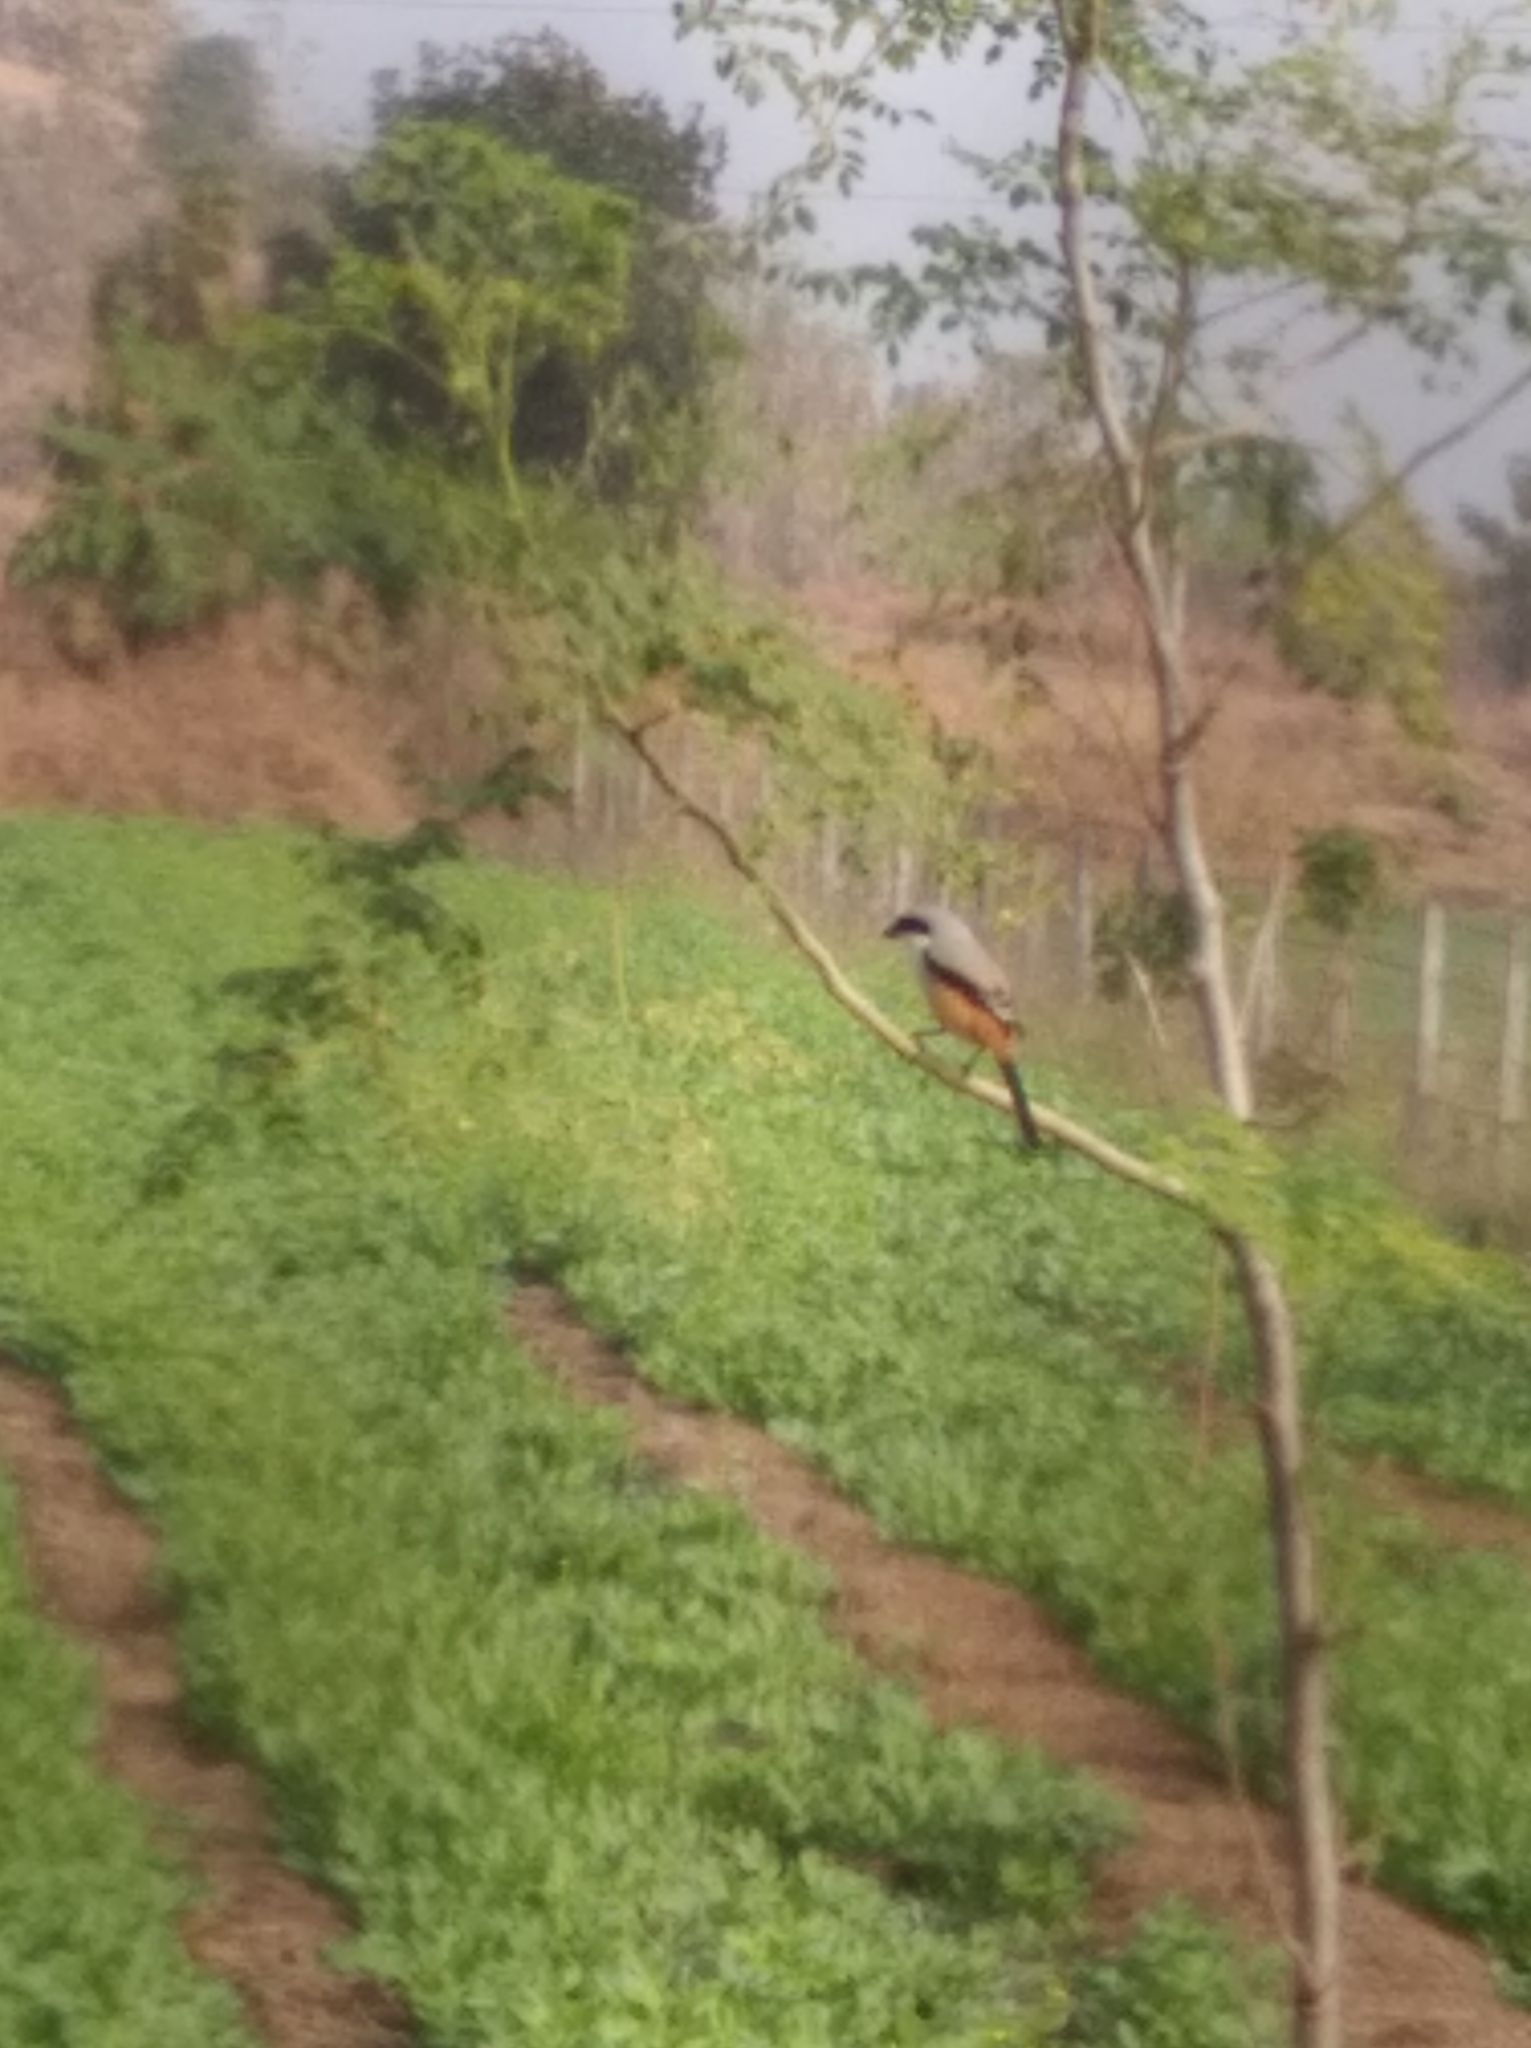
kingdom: Animalia
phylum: Chordata
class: Aves
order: Passeriformes
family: Laniidae
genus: Lanius
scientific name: Lanius schach
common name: Long-tailed shrike
